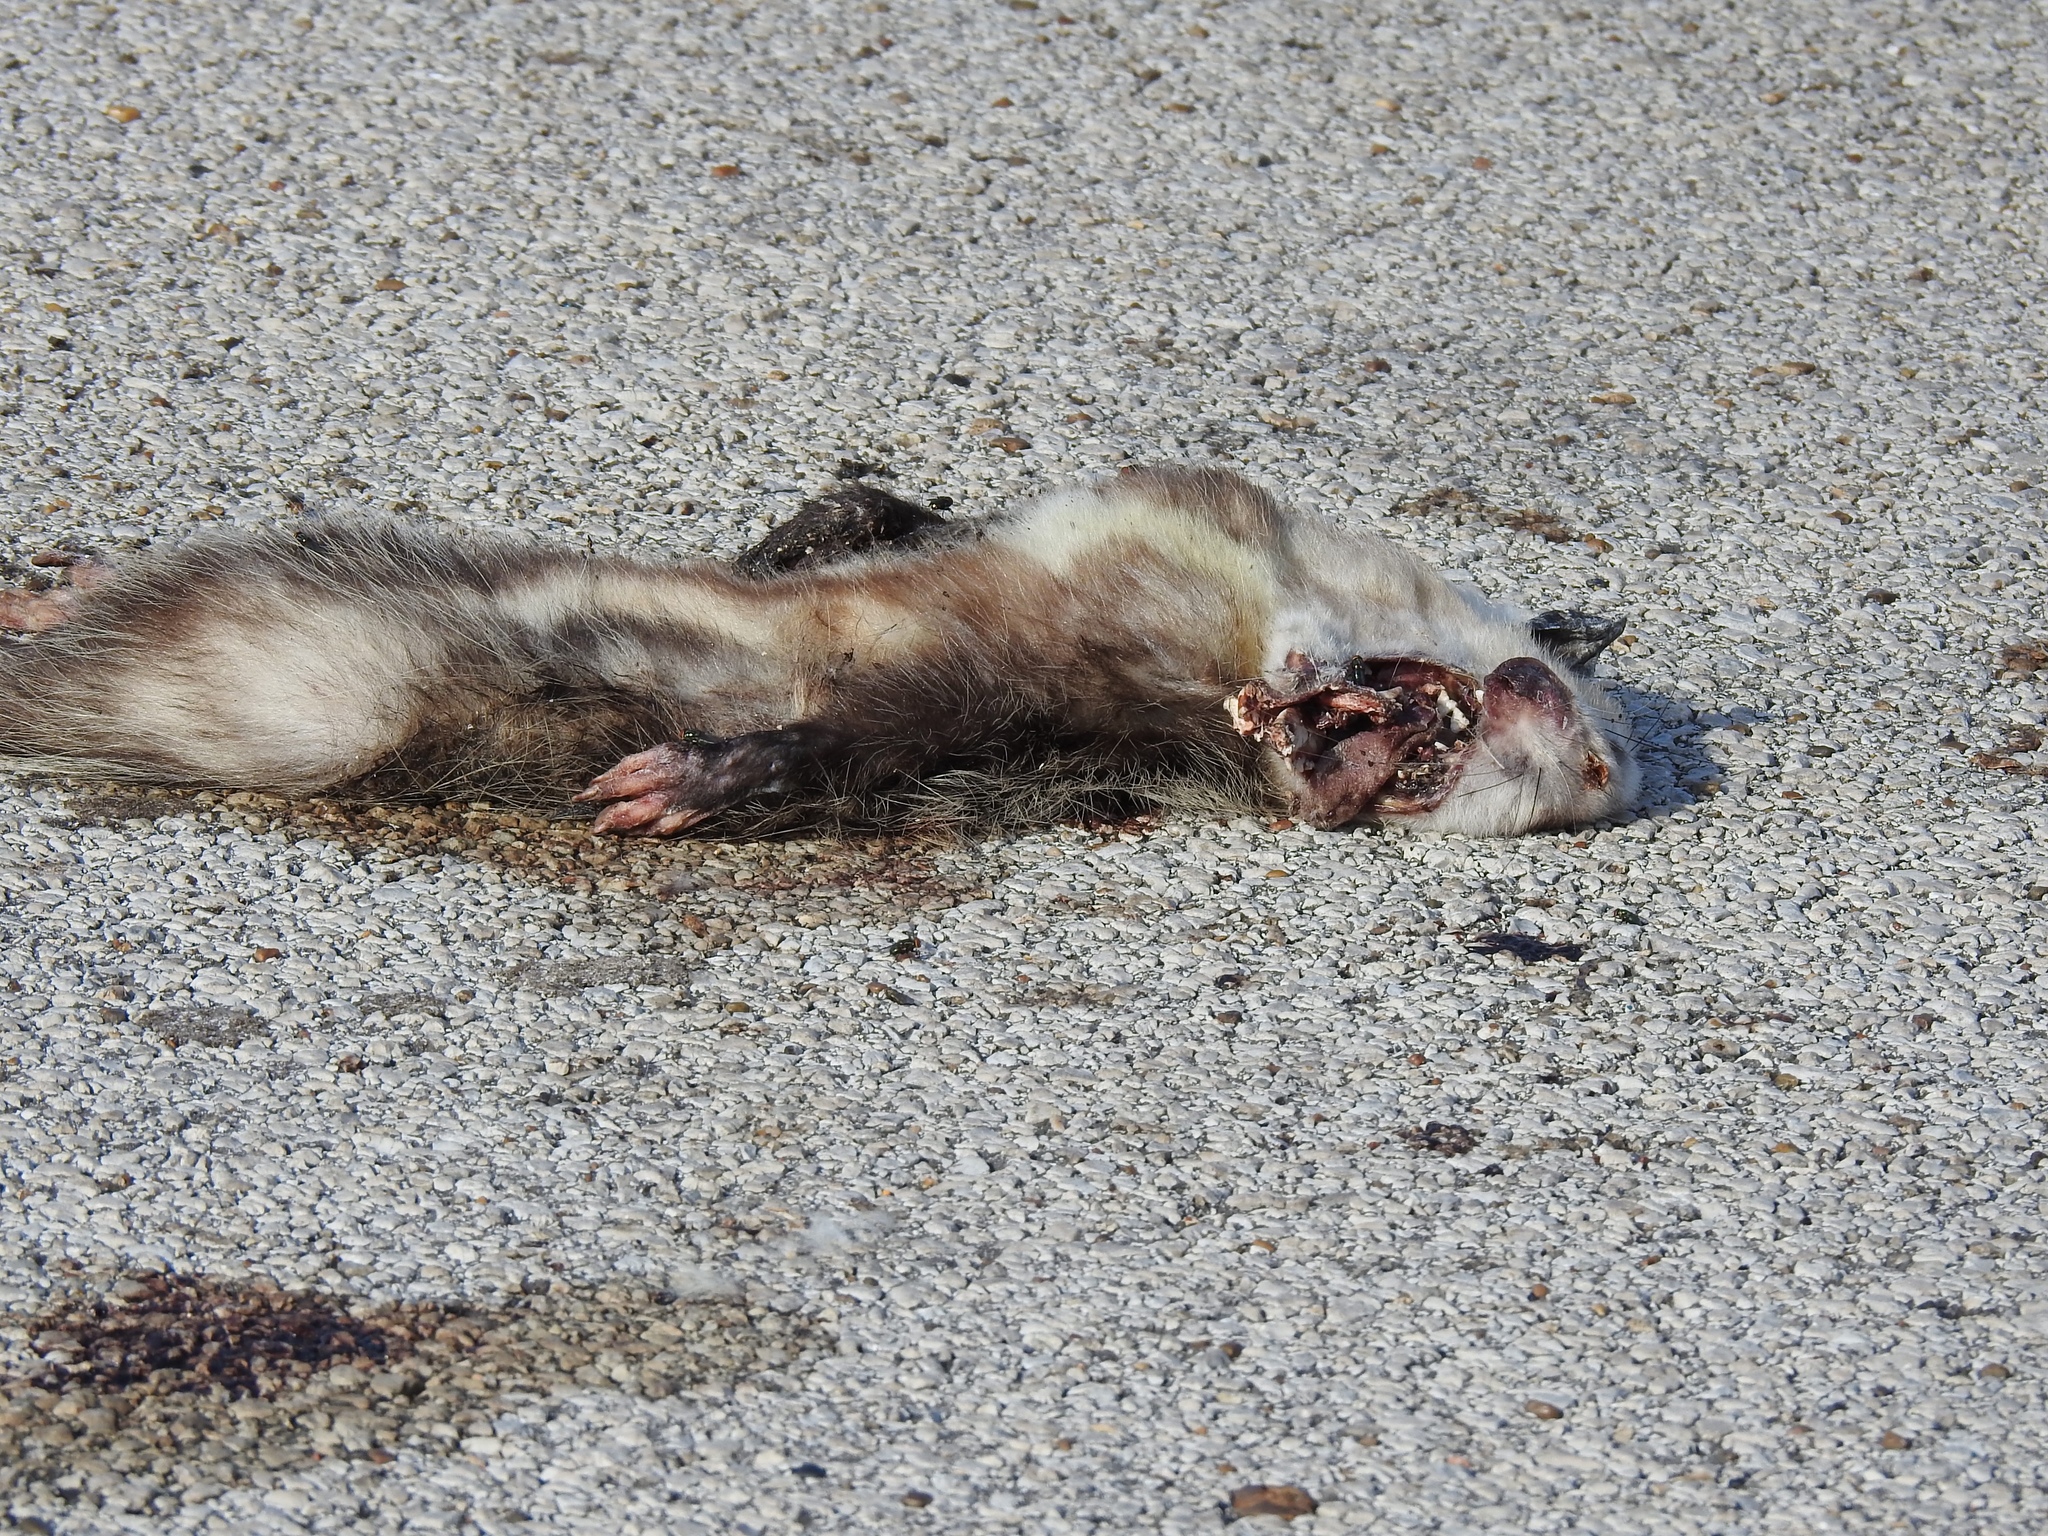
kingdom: Animalia
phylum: Chordata
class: Mammalia
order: Didelphimorphia
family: Didelphidae
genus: Didelphis
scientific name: Didelphis virginiana
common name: Virginia opossum
